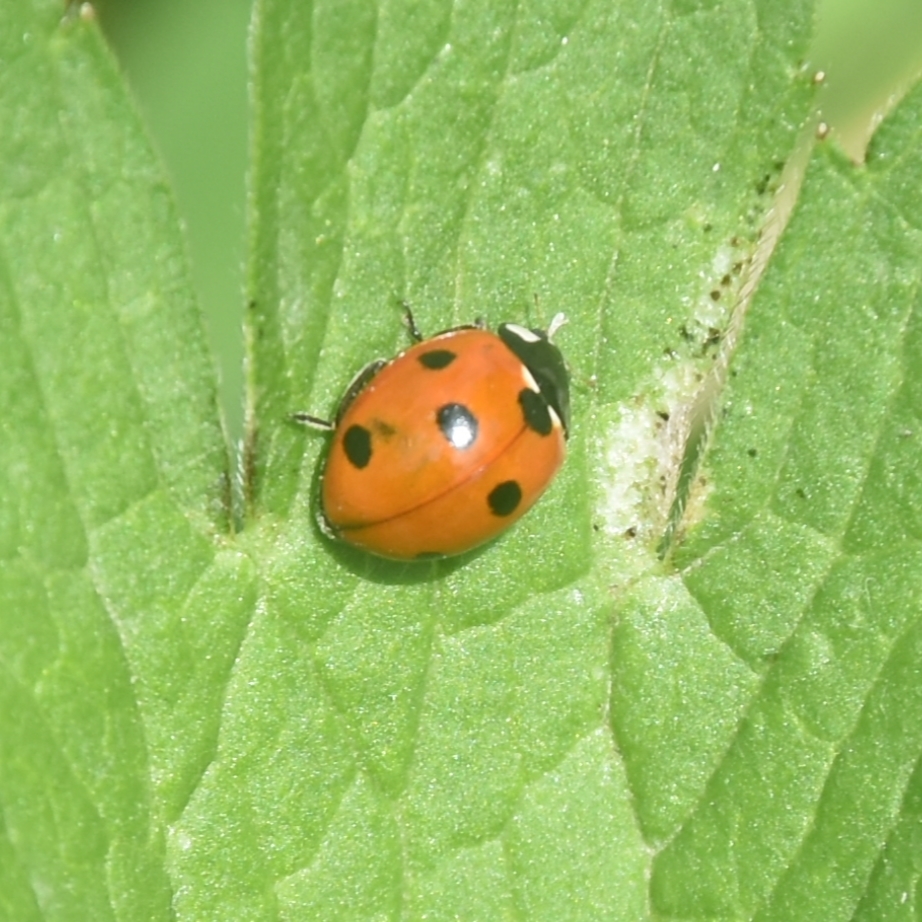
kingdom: Animalia
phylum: Arthropoda
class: Insecta
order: Coleoptera
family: Coccinellidae
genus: Coccinella
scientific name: Coccinella septempunctata
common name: Sevenspotted lady beetle
